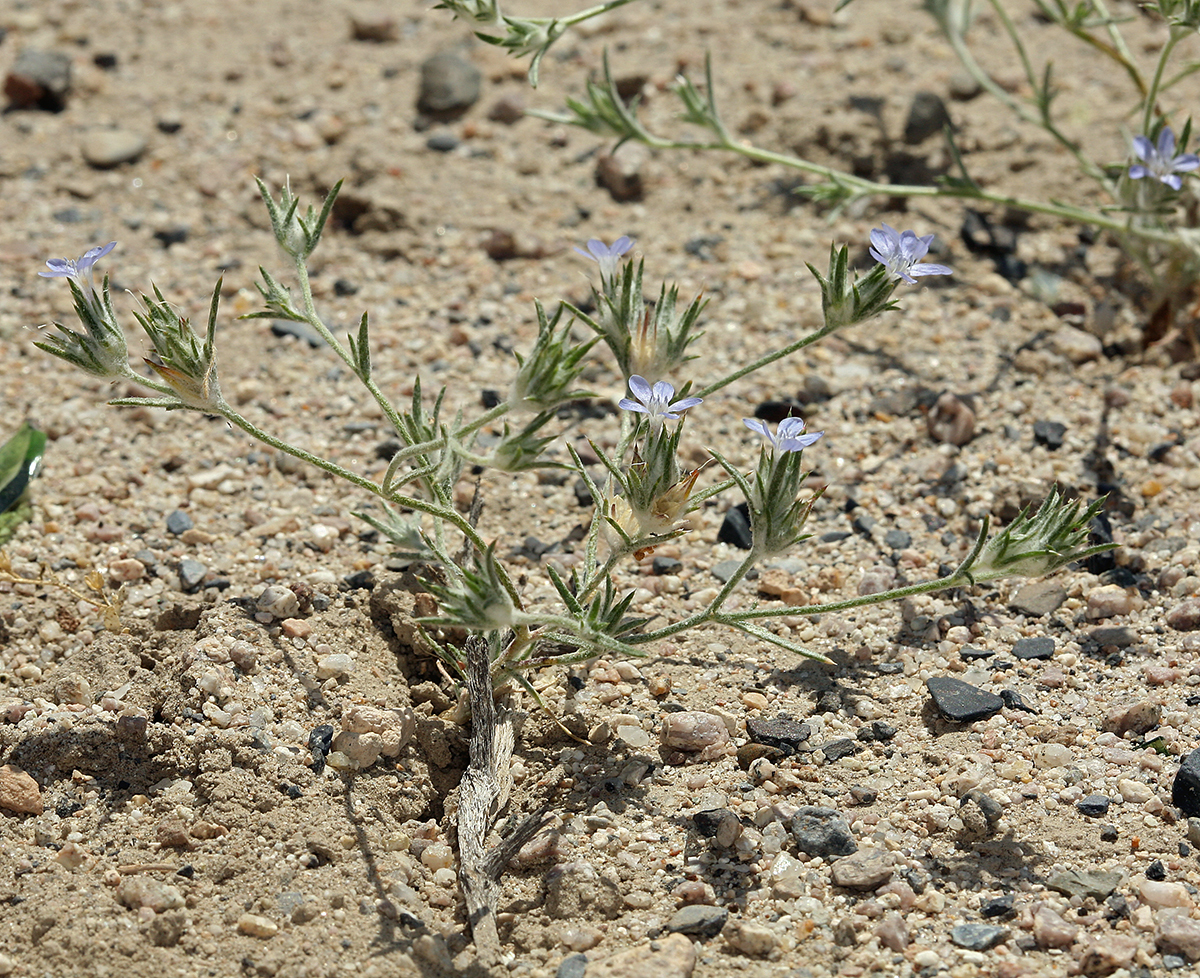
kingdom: Plantae
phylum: Tracheophyta
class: Magnoliopsida
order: Ericales
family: Polemoniaceae
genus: Eriastrum
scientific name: Eriastrum wilcoxii
